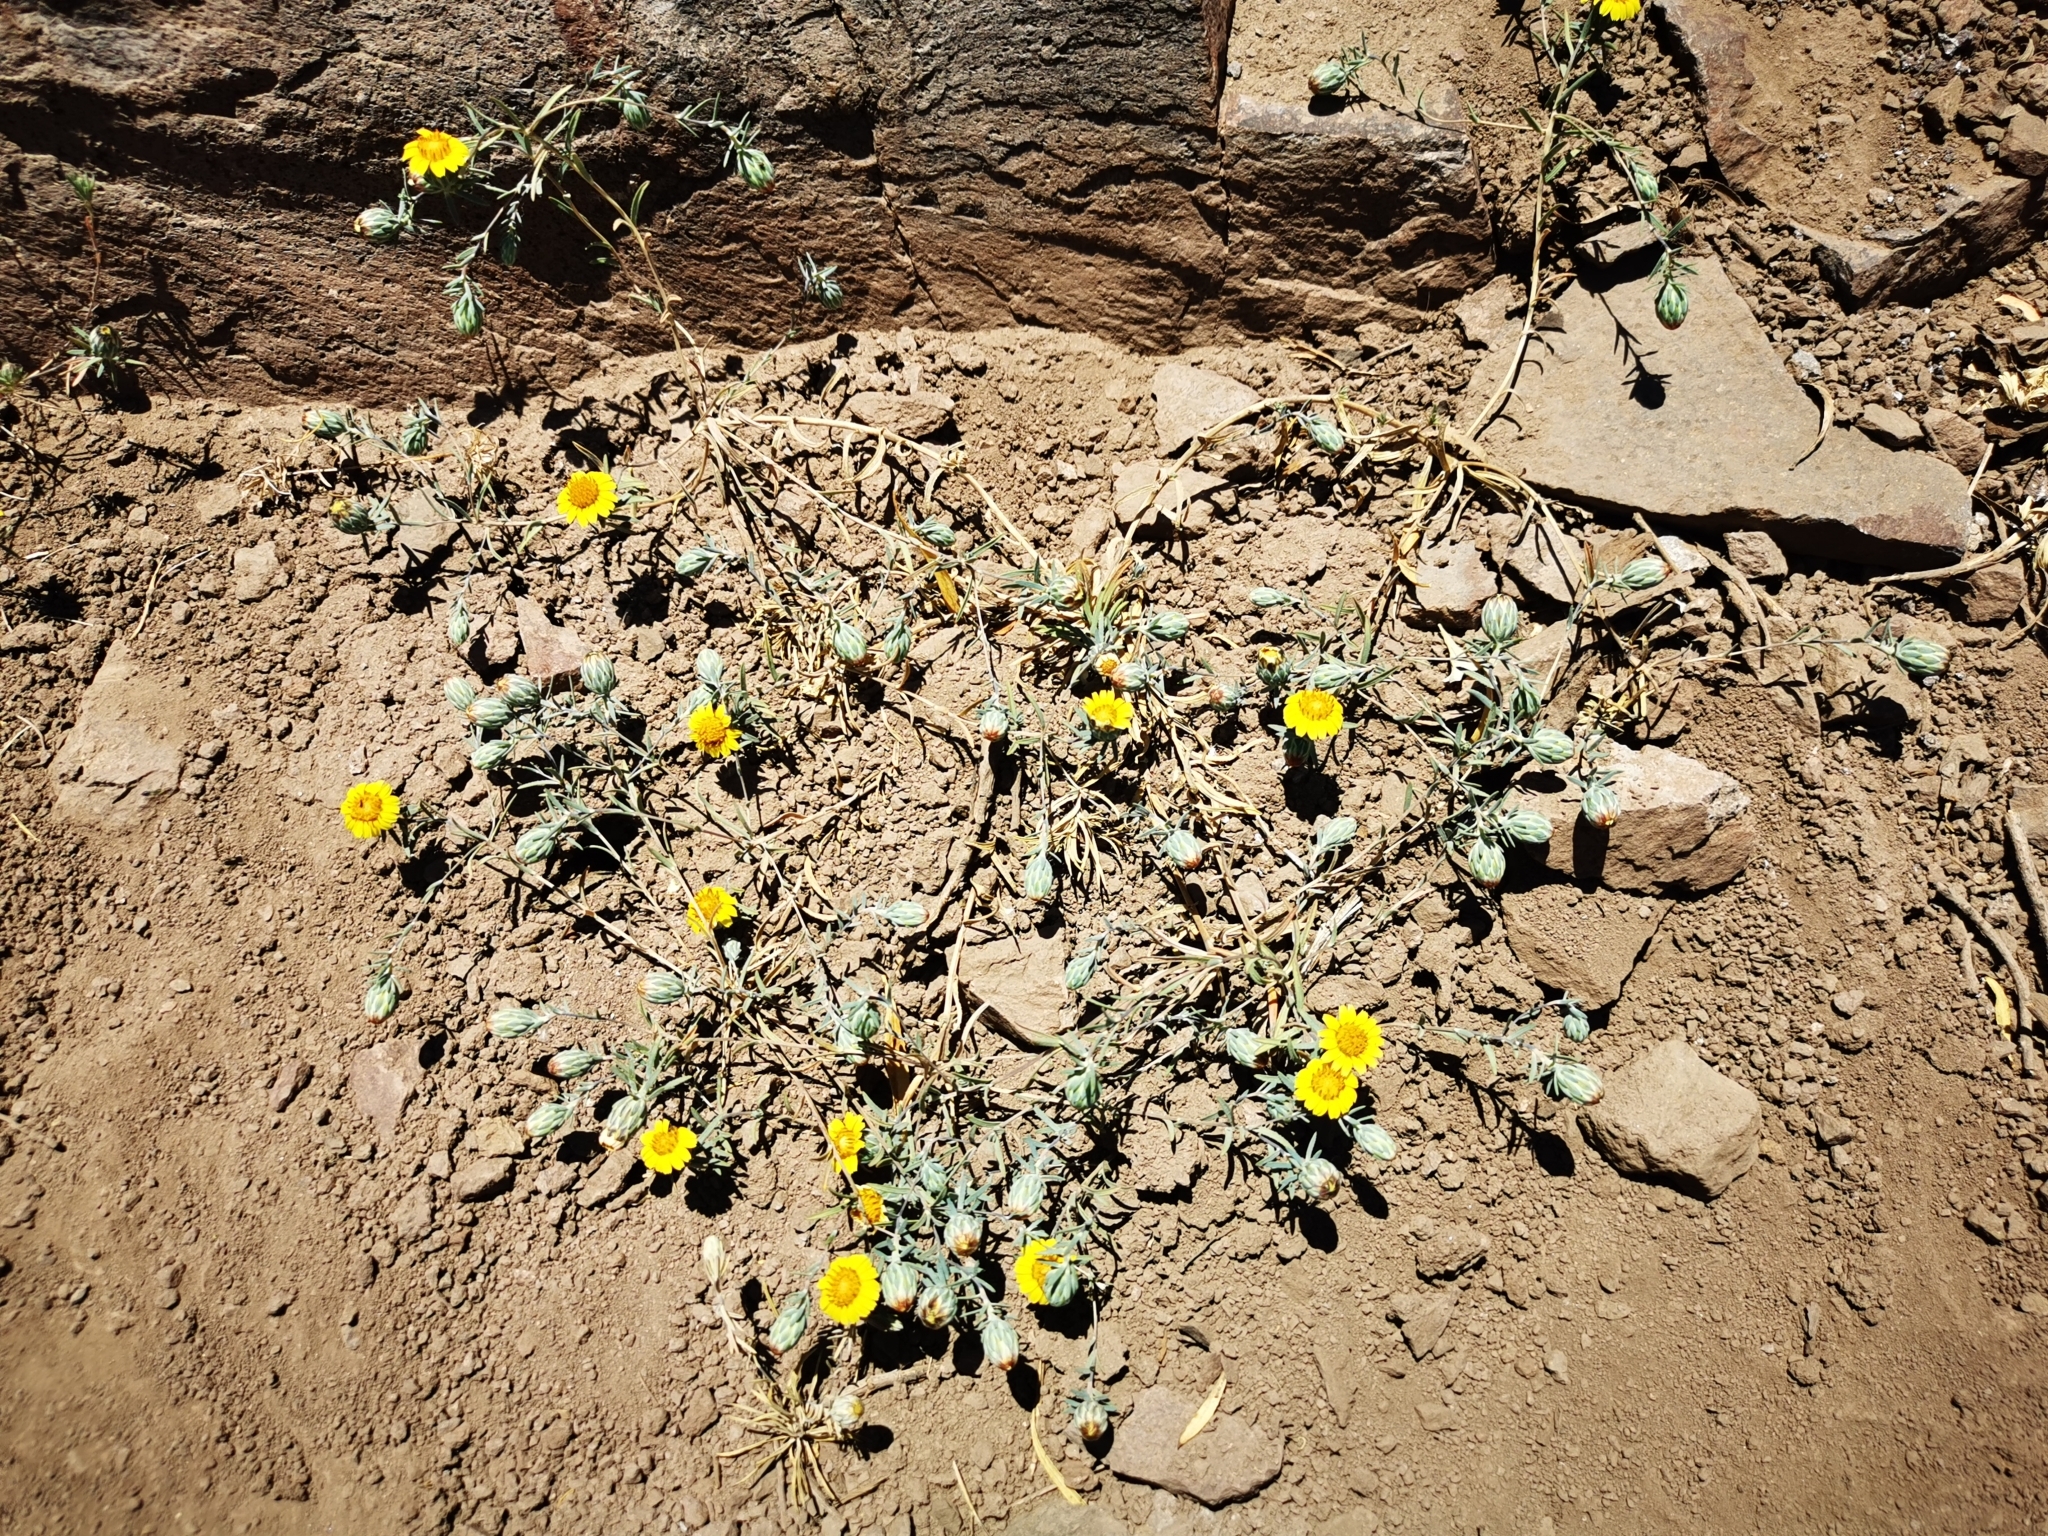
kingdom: Plantae
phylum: Tracheophyta
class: Magnoliopsida
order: Asterales
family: Asteraceae
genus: Chaetanthera
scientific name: Chaetanthera linearis
